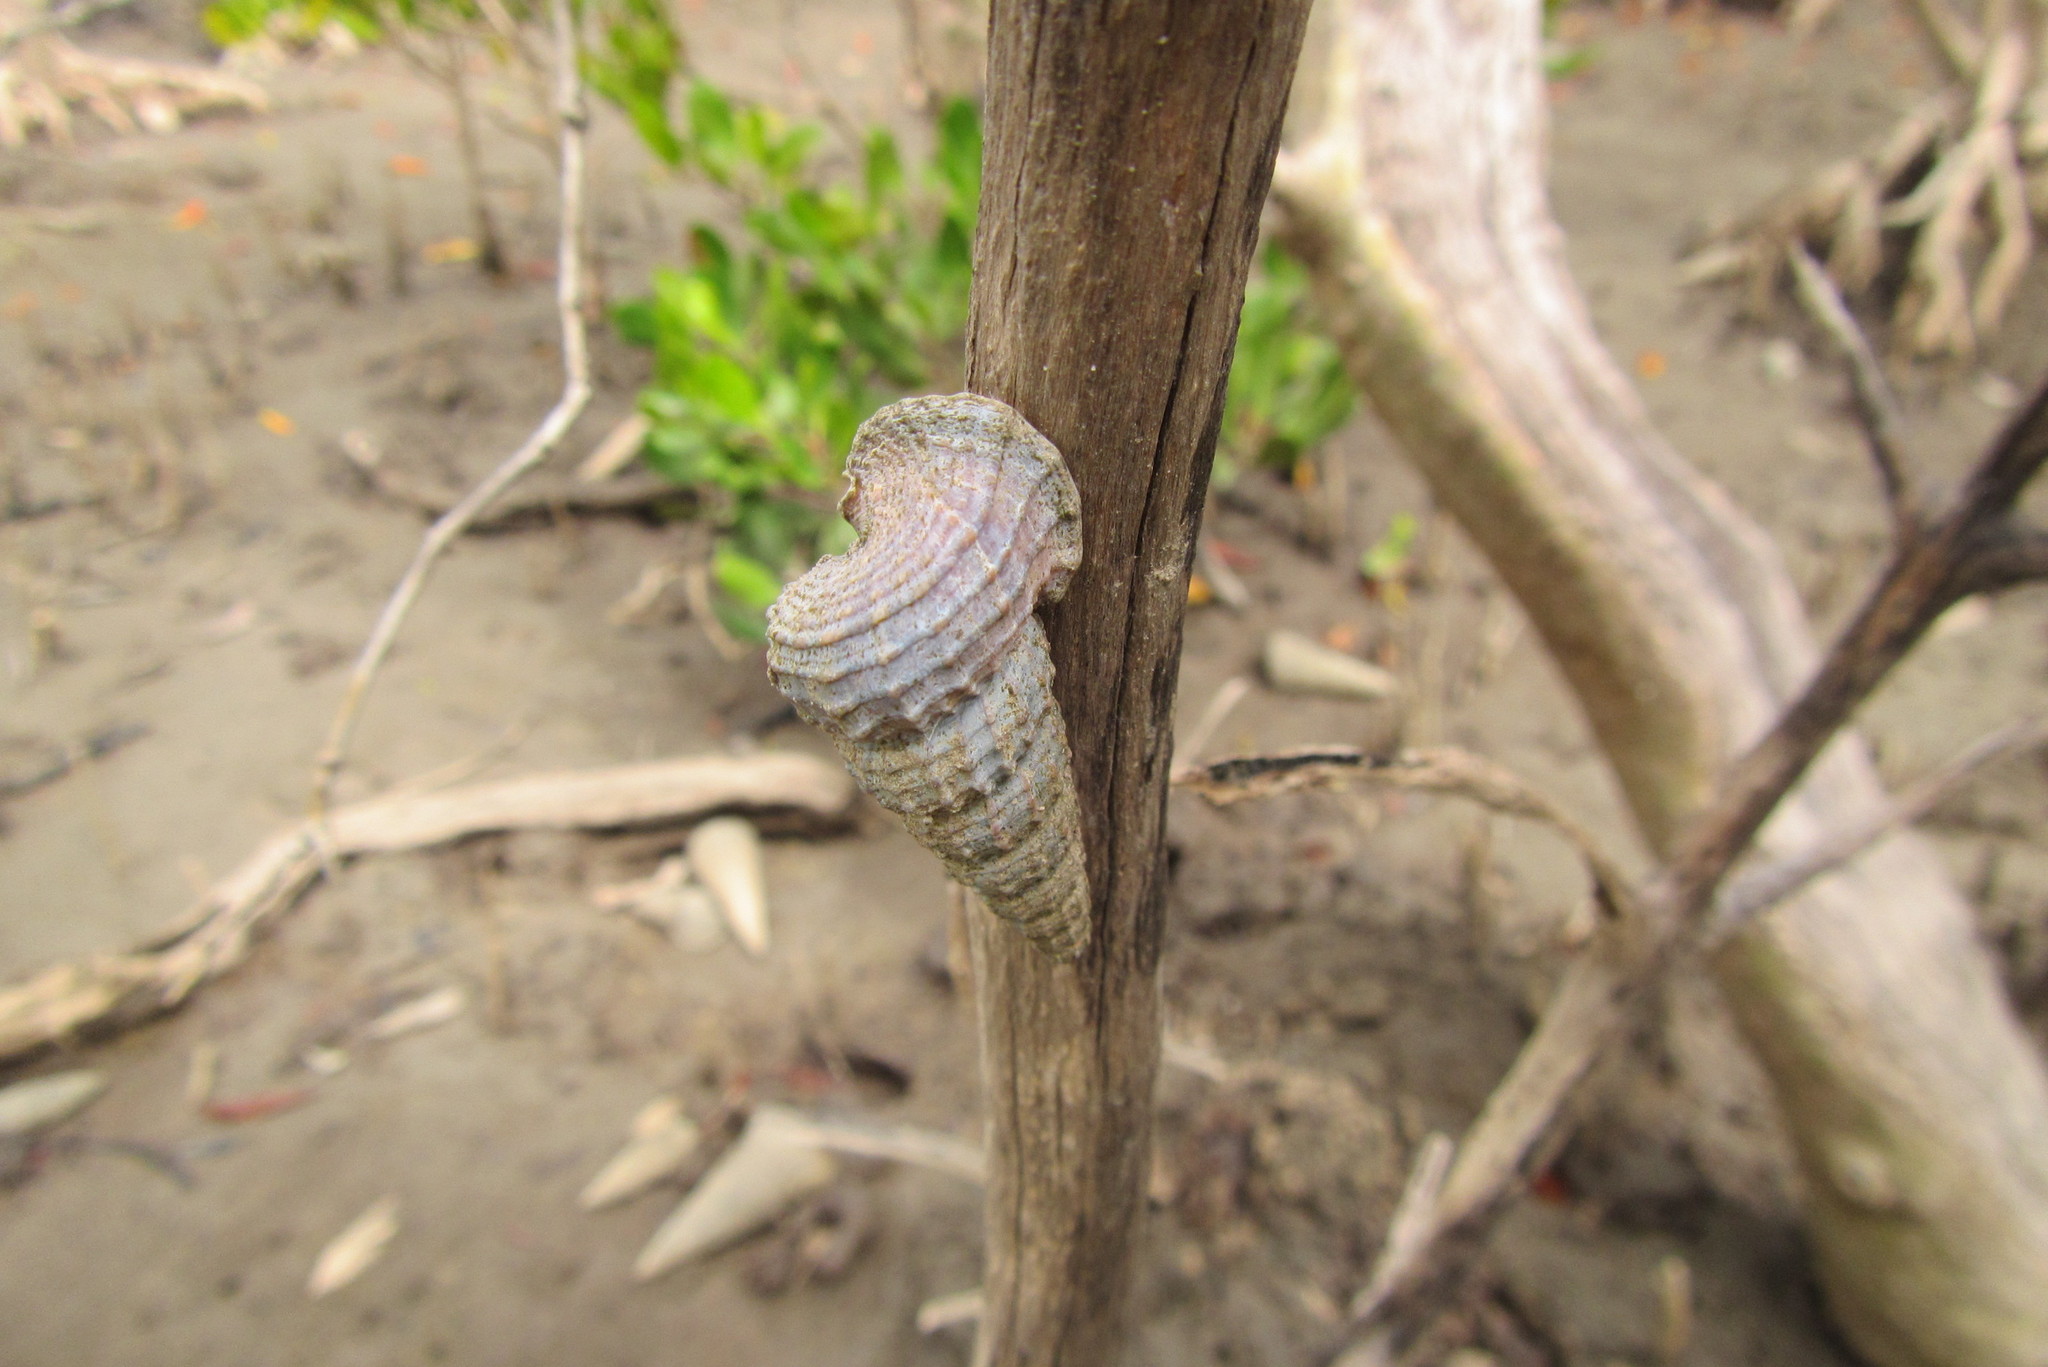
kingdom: Animalia
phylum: Mollusca
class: Gastropoda
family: Potamididae
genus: Cerithidea
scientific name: Cerithidea anticipata
